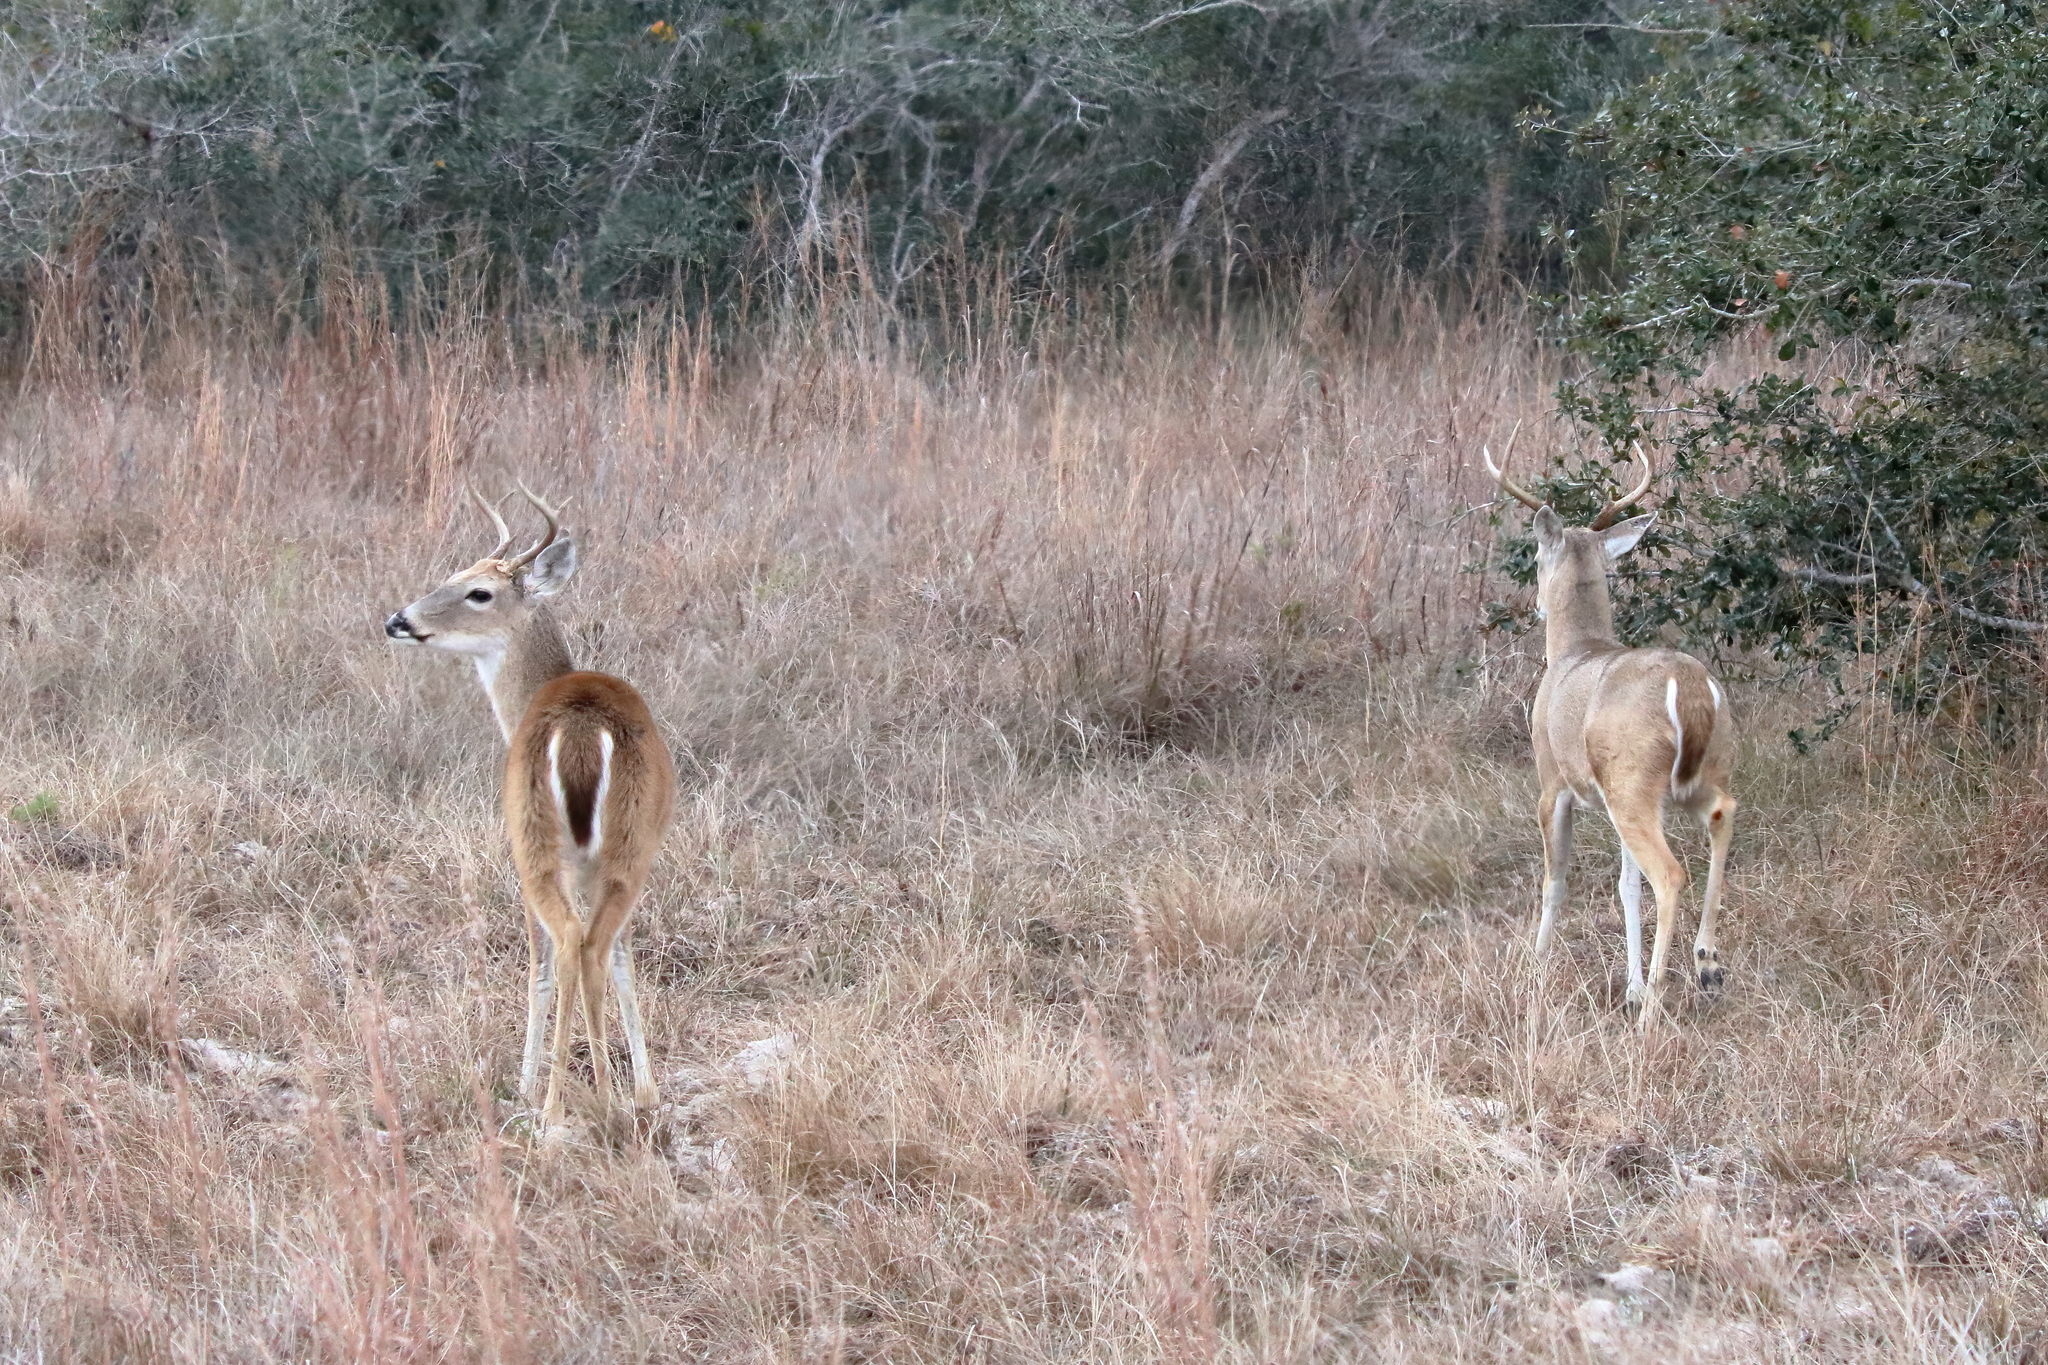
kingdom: Animalia
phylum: Chordata
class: Mammalia
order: Artiodactyla
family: Cervidae
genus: Odocoileus
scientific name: Odocoileus virginianus
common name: White-tailed deer
